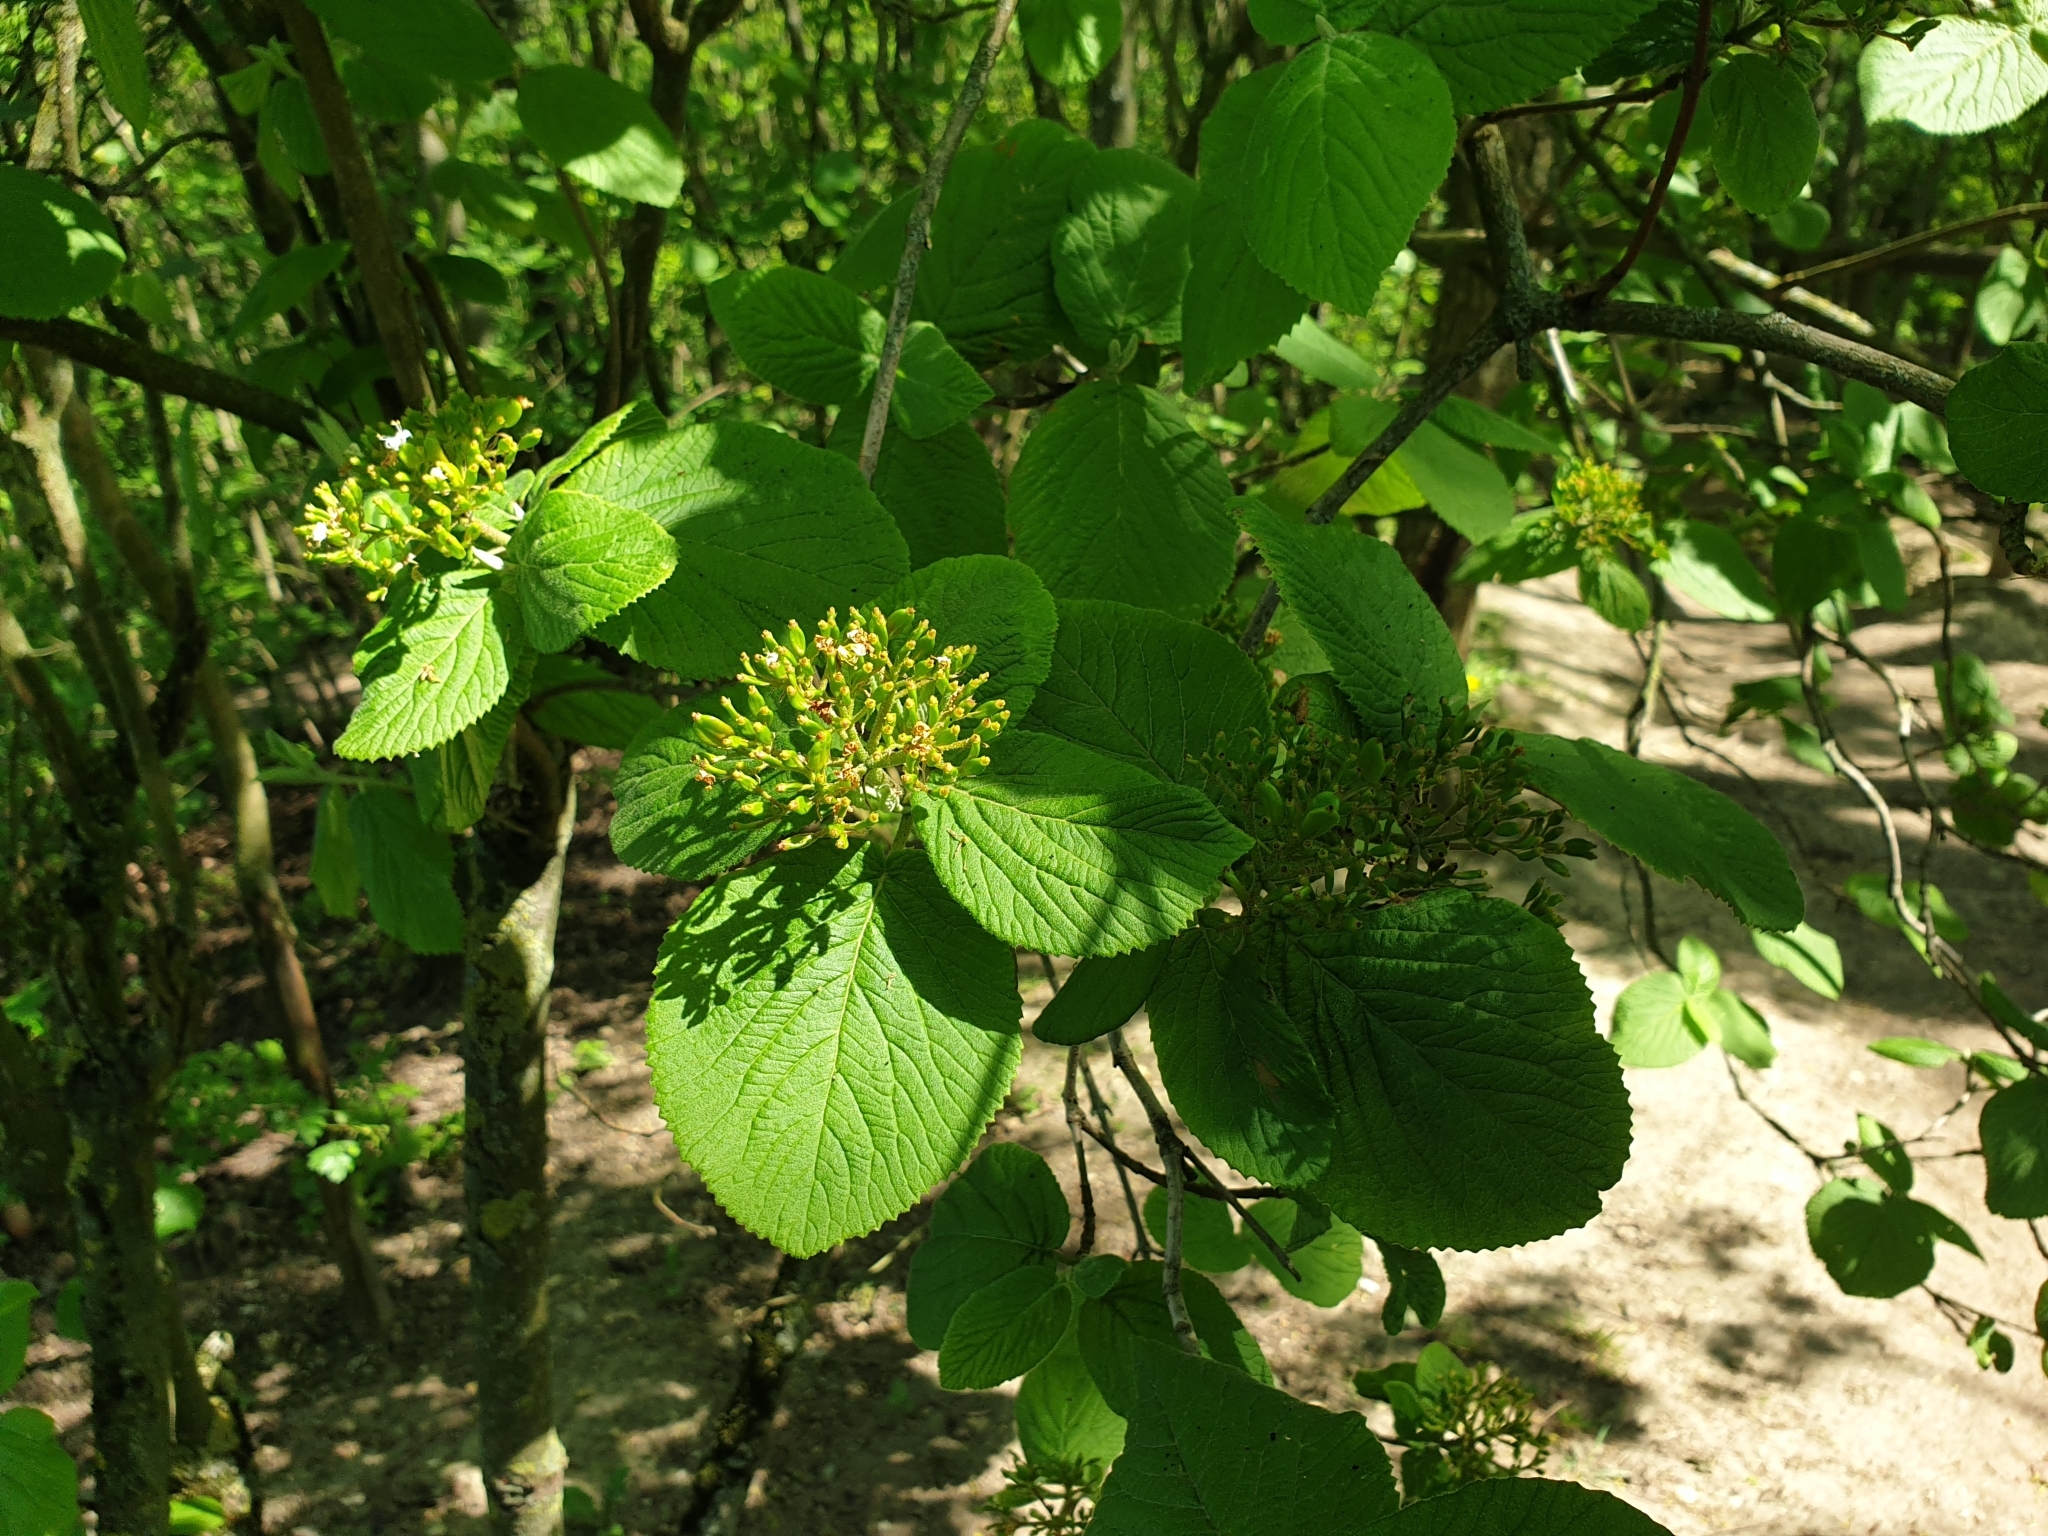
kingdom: Plantae
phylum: Tracheophyta
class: Magnoliopsida
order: Dipsacales
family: Viburnaceae
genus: Viburnum
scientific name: Viburnum lantana
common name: Wayfaring tree
